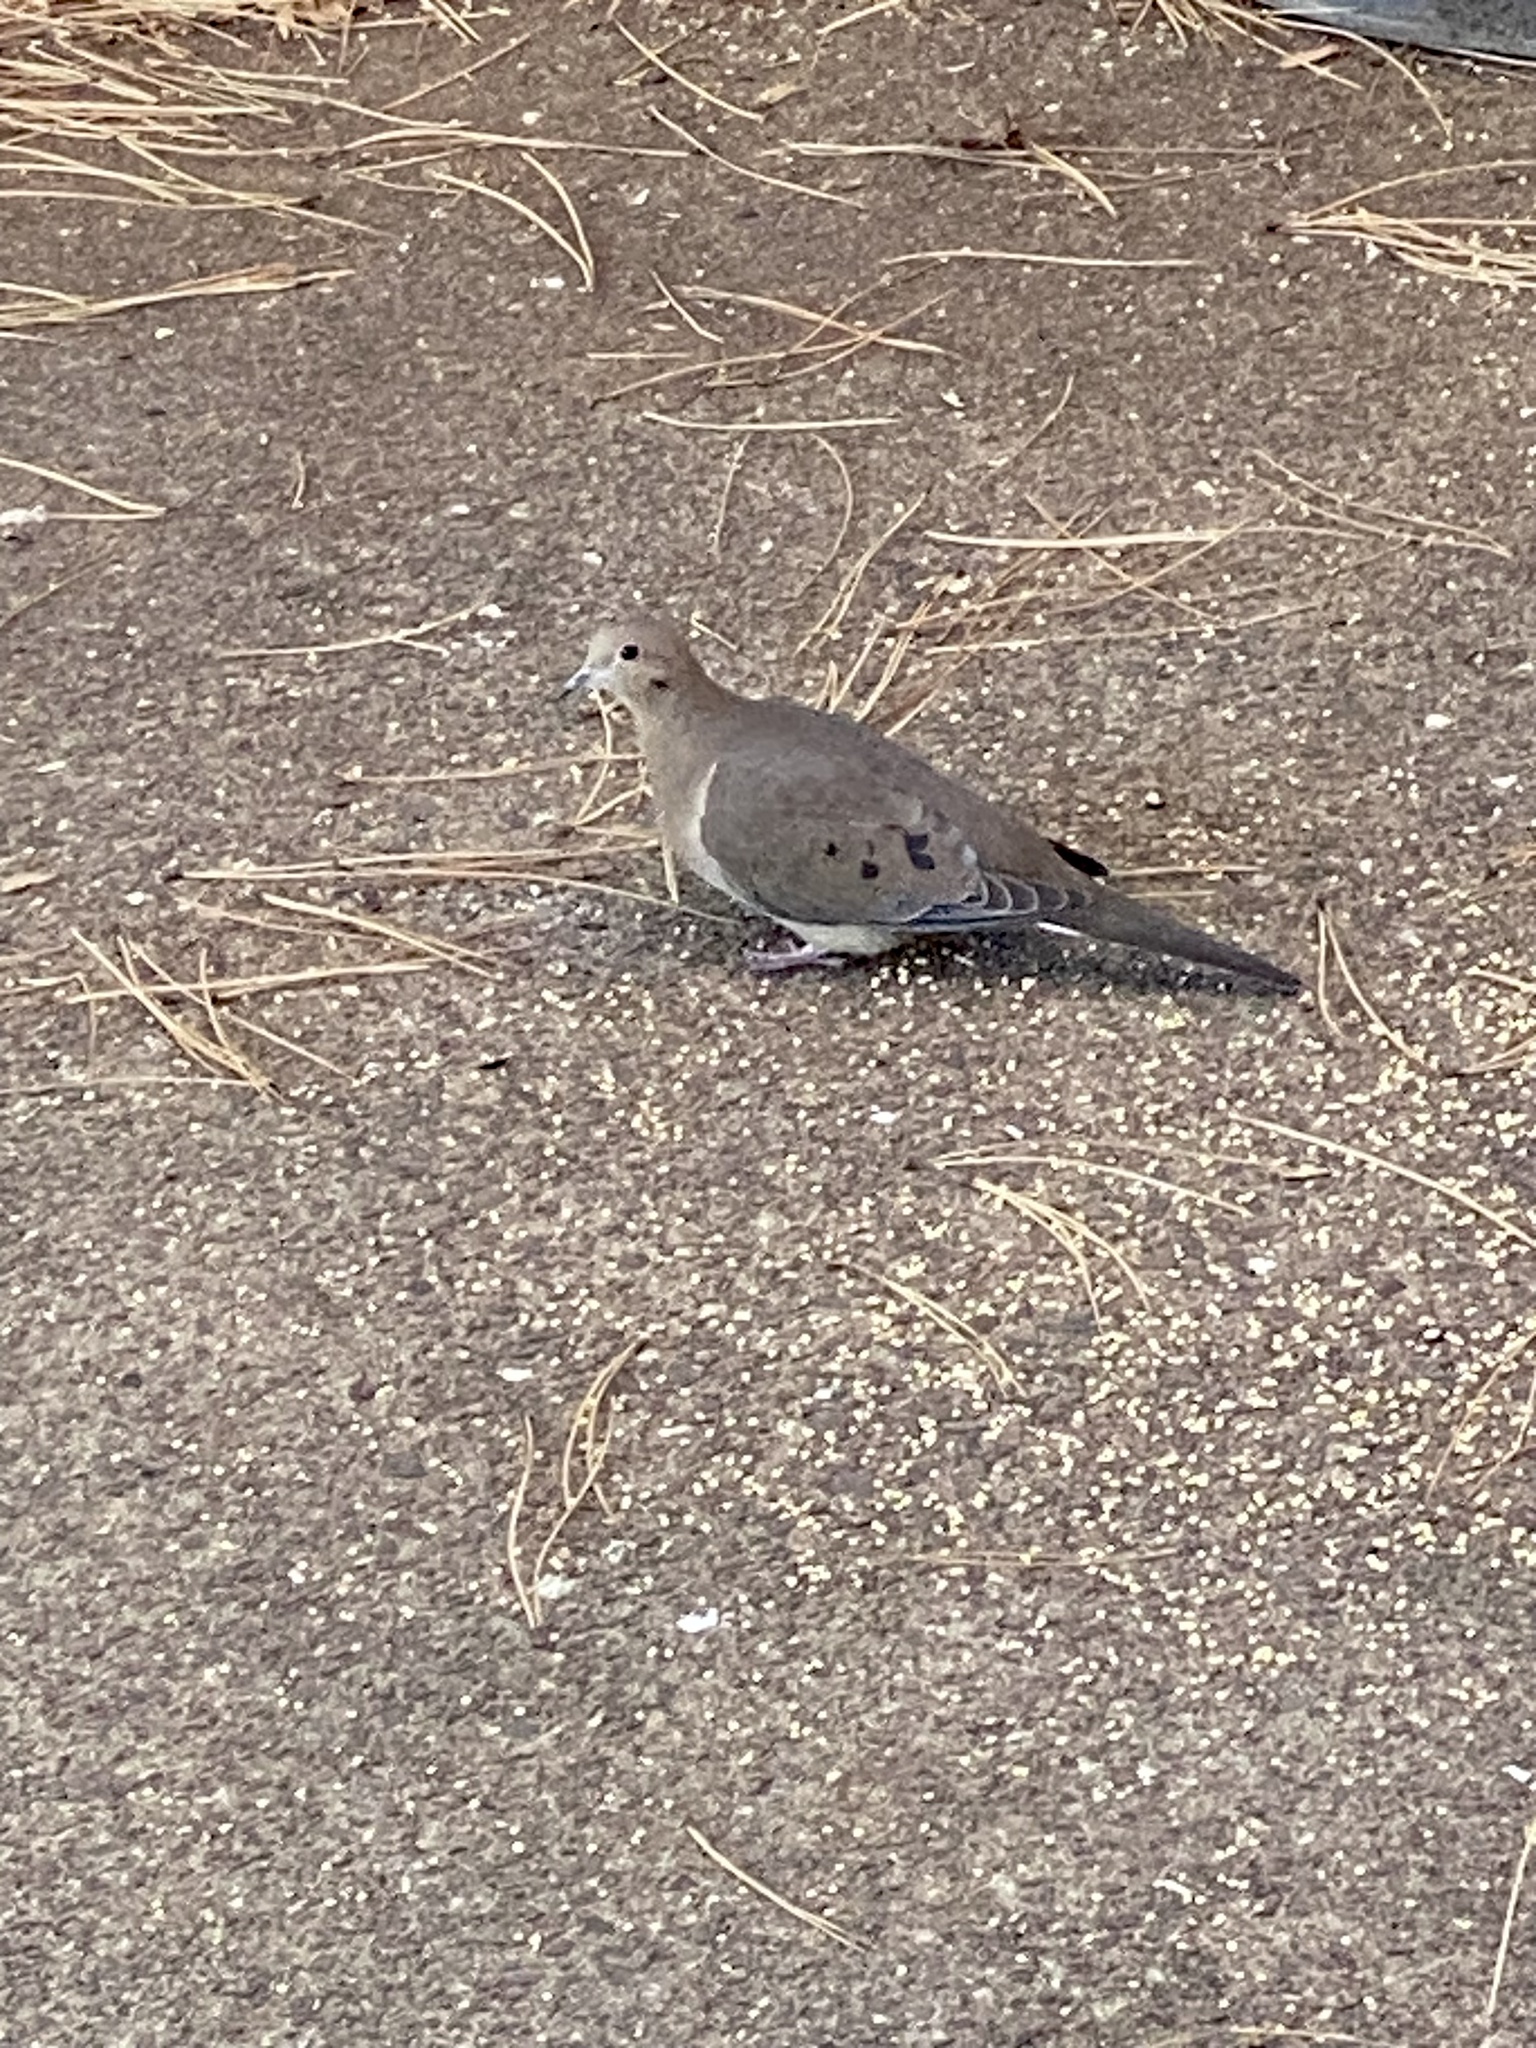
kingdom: Animalia
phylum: Chordata
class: Aves
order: Columbiformes
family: Columbidae
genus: Zenaida
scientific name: Zenaida macroura
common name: Mourning dove
